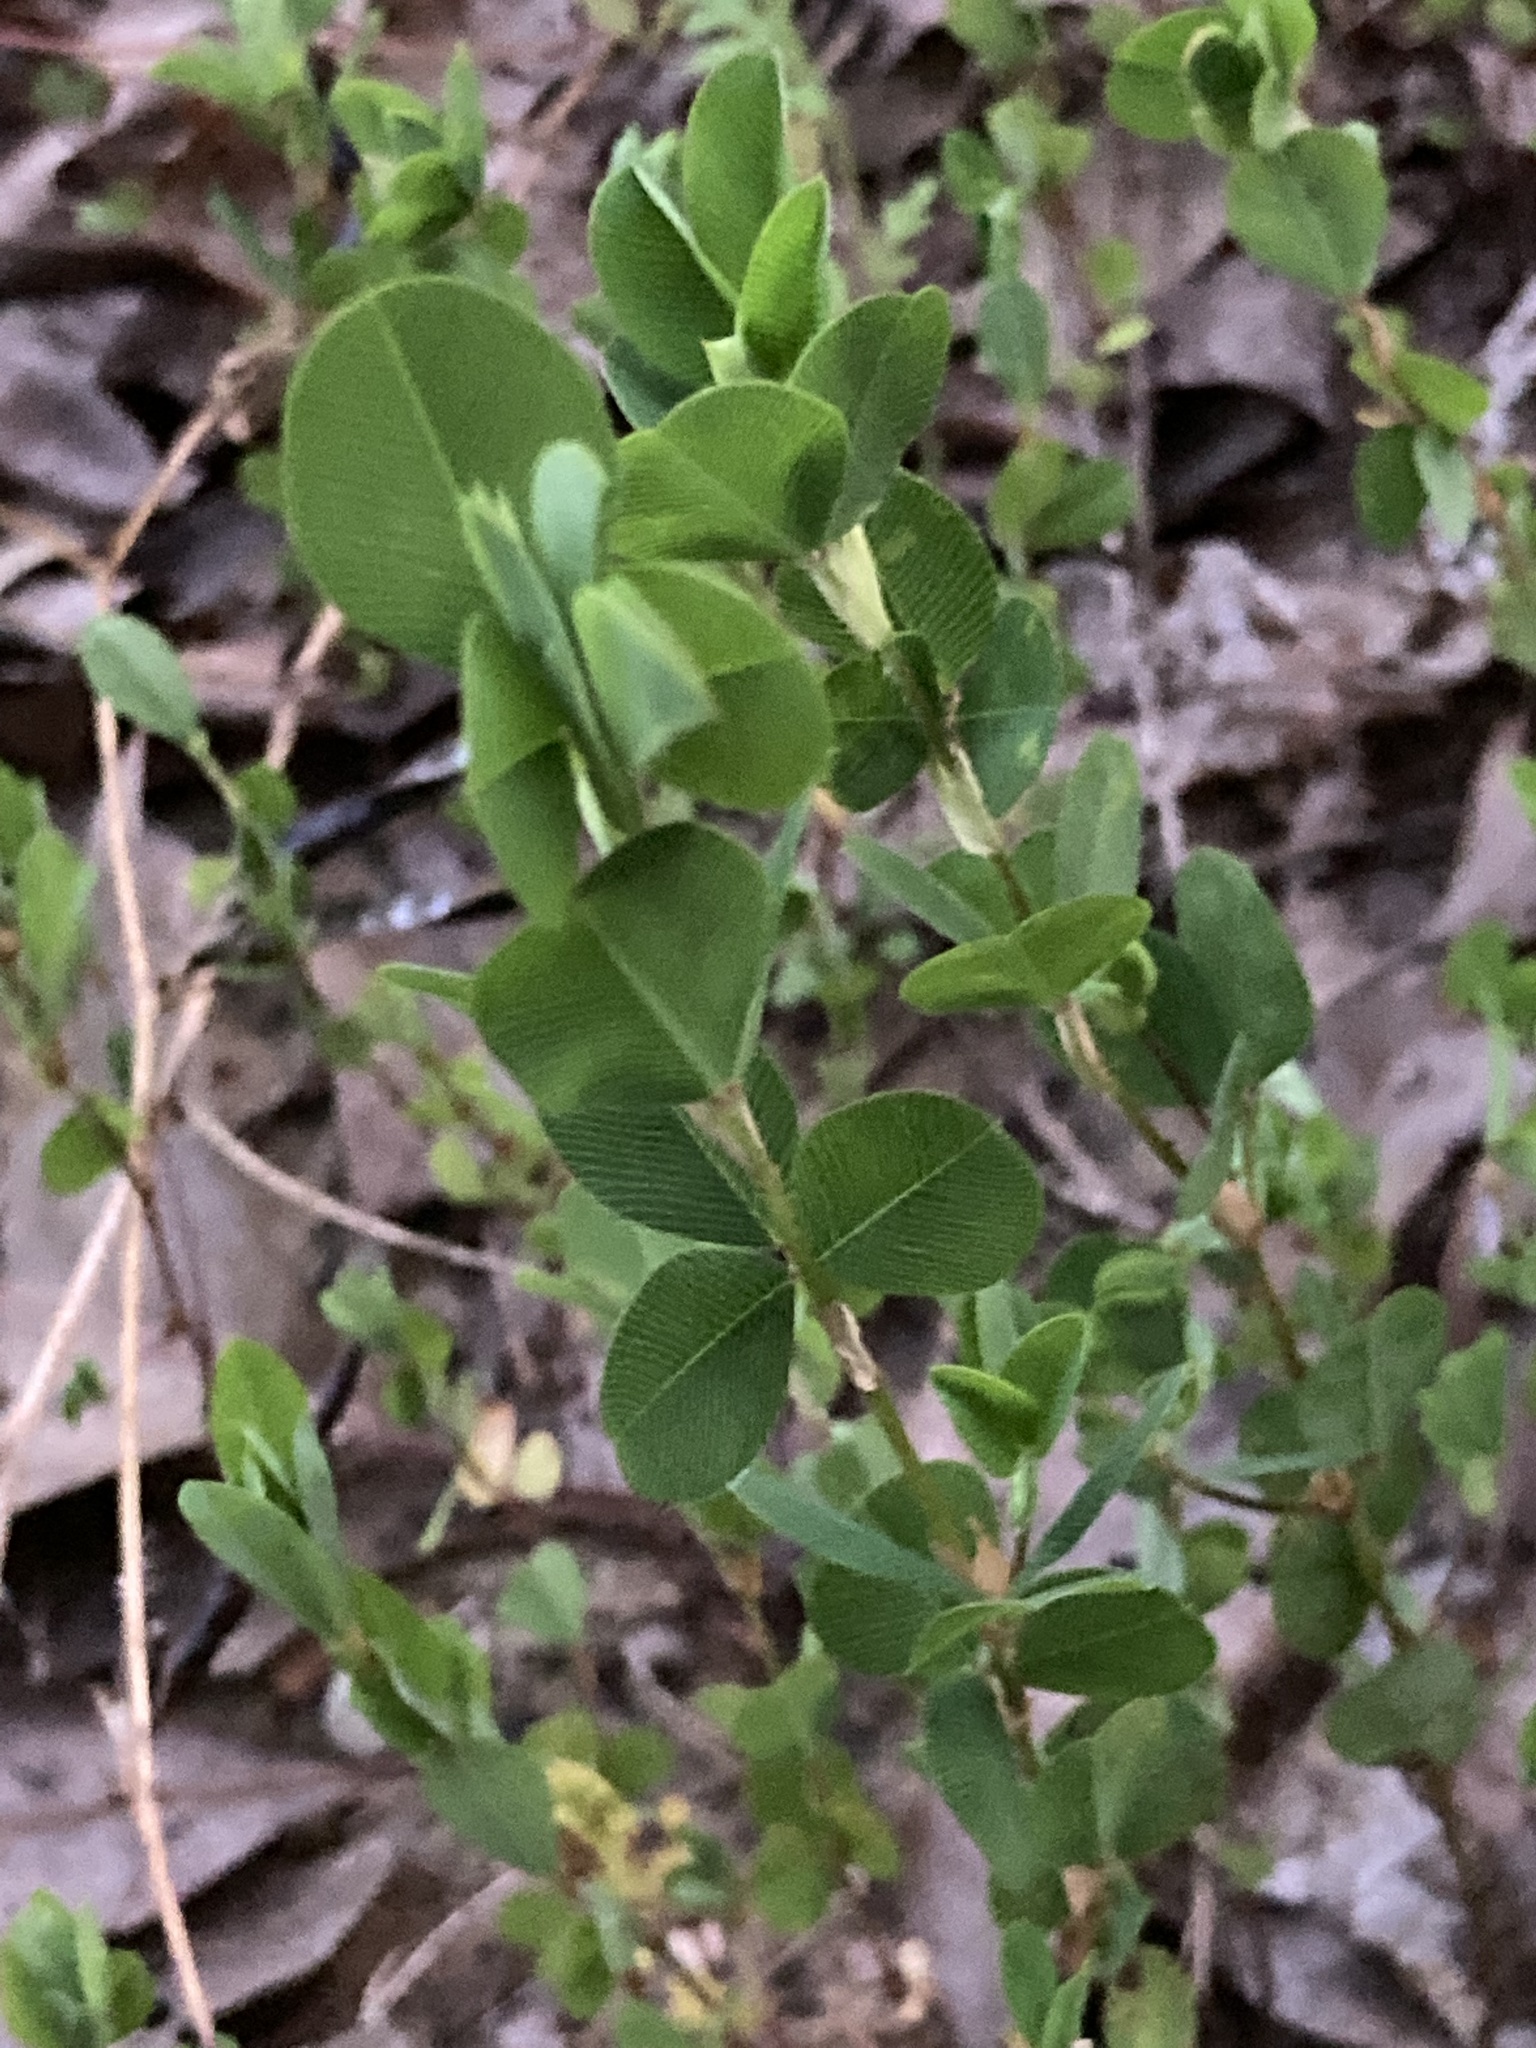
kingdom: Plantae
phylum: Tracheophyta
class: Magnoliopsida
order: Fabales
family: Fabaceae
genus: Kummerowia
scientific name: Kummerowia stipulacea
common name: Korean clover
